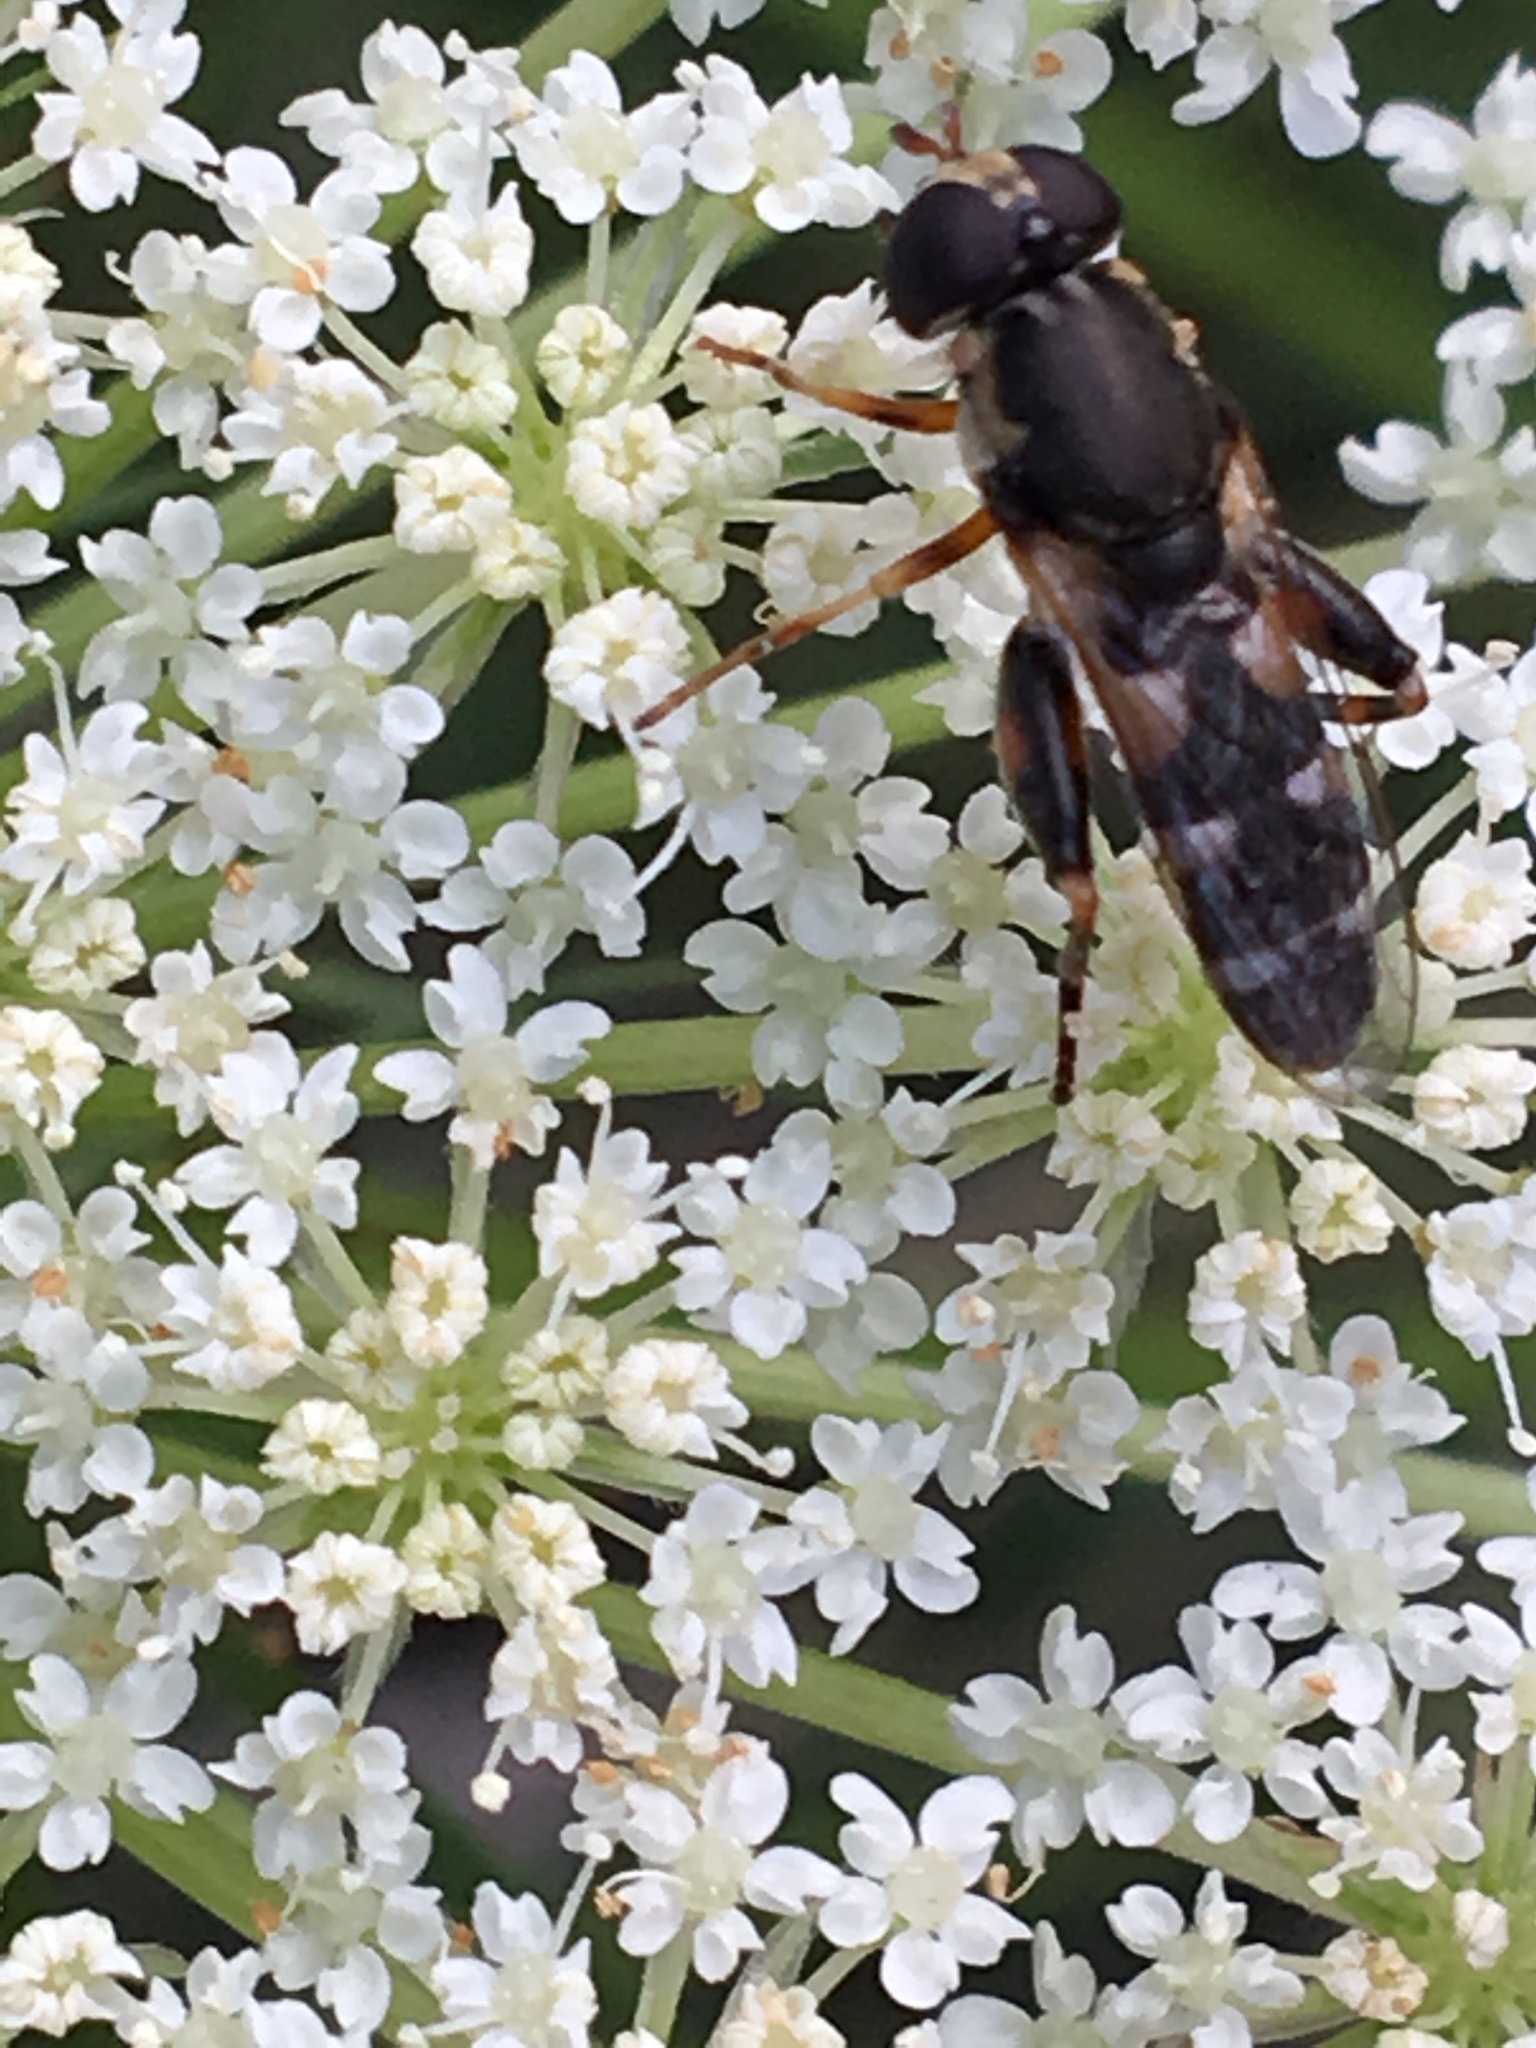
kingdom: Animalia
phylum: Arthropoda
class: Insecta
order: Diptera
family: Syrphidae
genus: Syritta
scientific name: Syritta pipiens
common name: Hover fly
